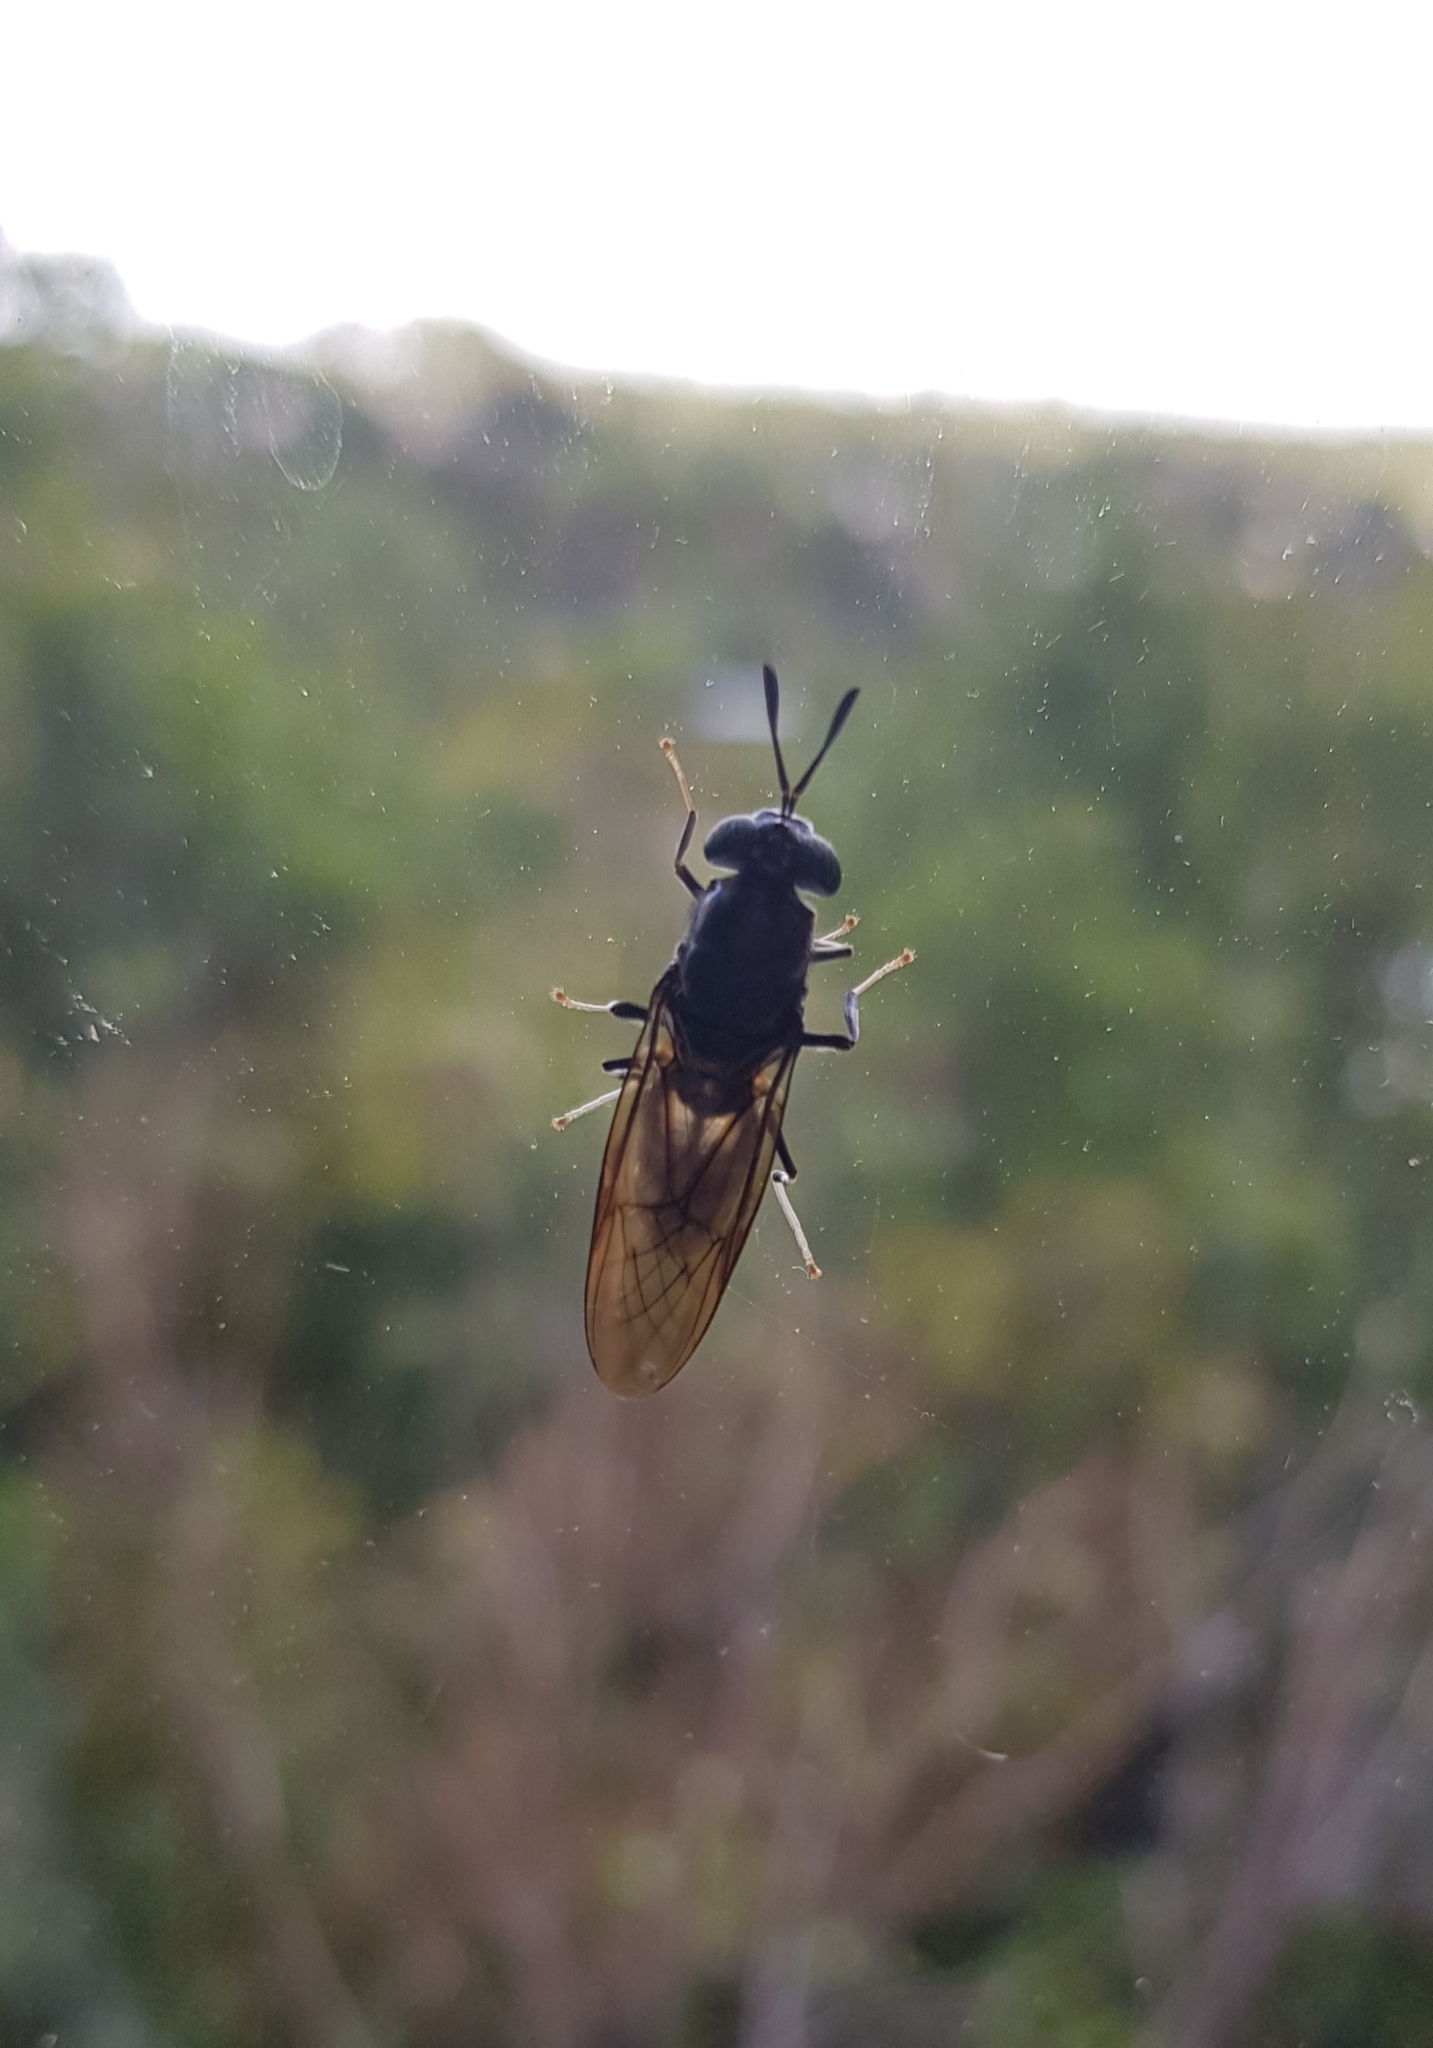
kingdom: Animalia
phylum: Arthropoda
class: Insecta
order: Diptera
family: Stratiomyidae
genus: Hermetia
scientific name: Hermetia illucens
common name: Black soldier fly
